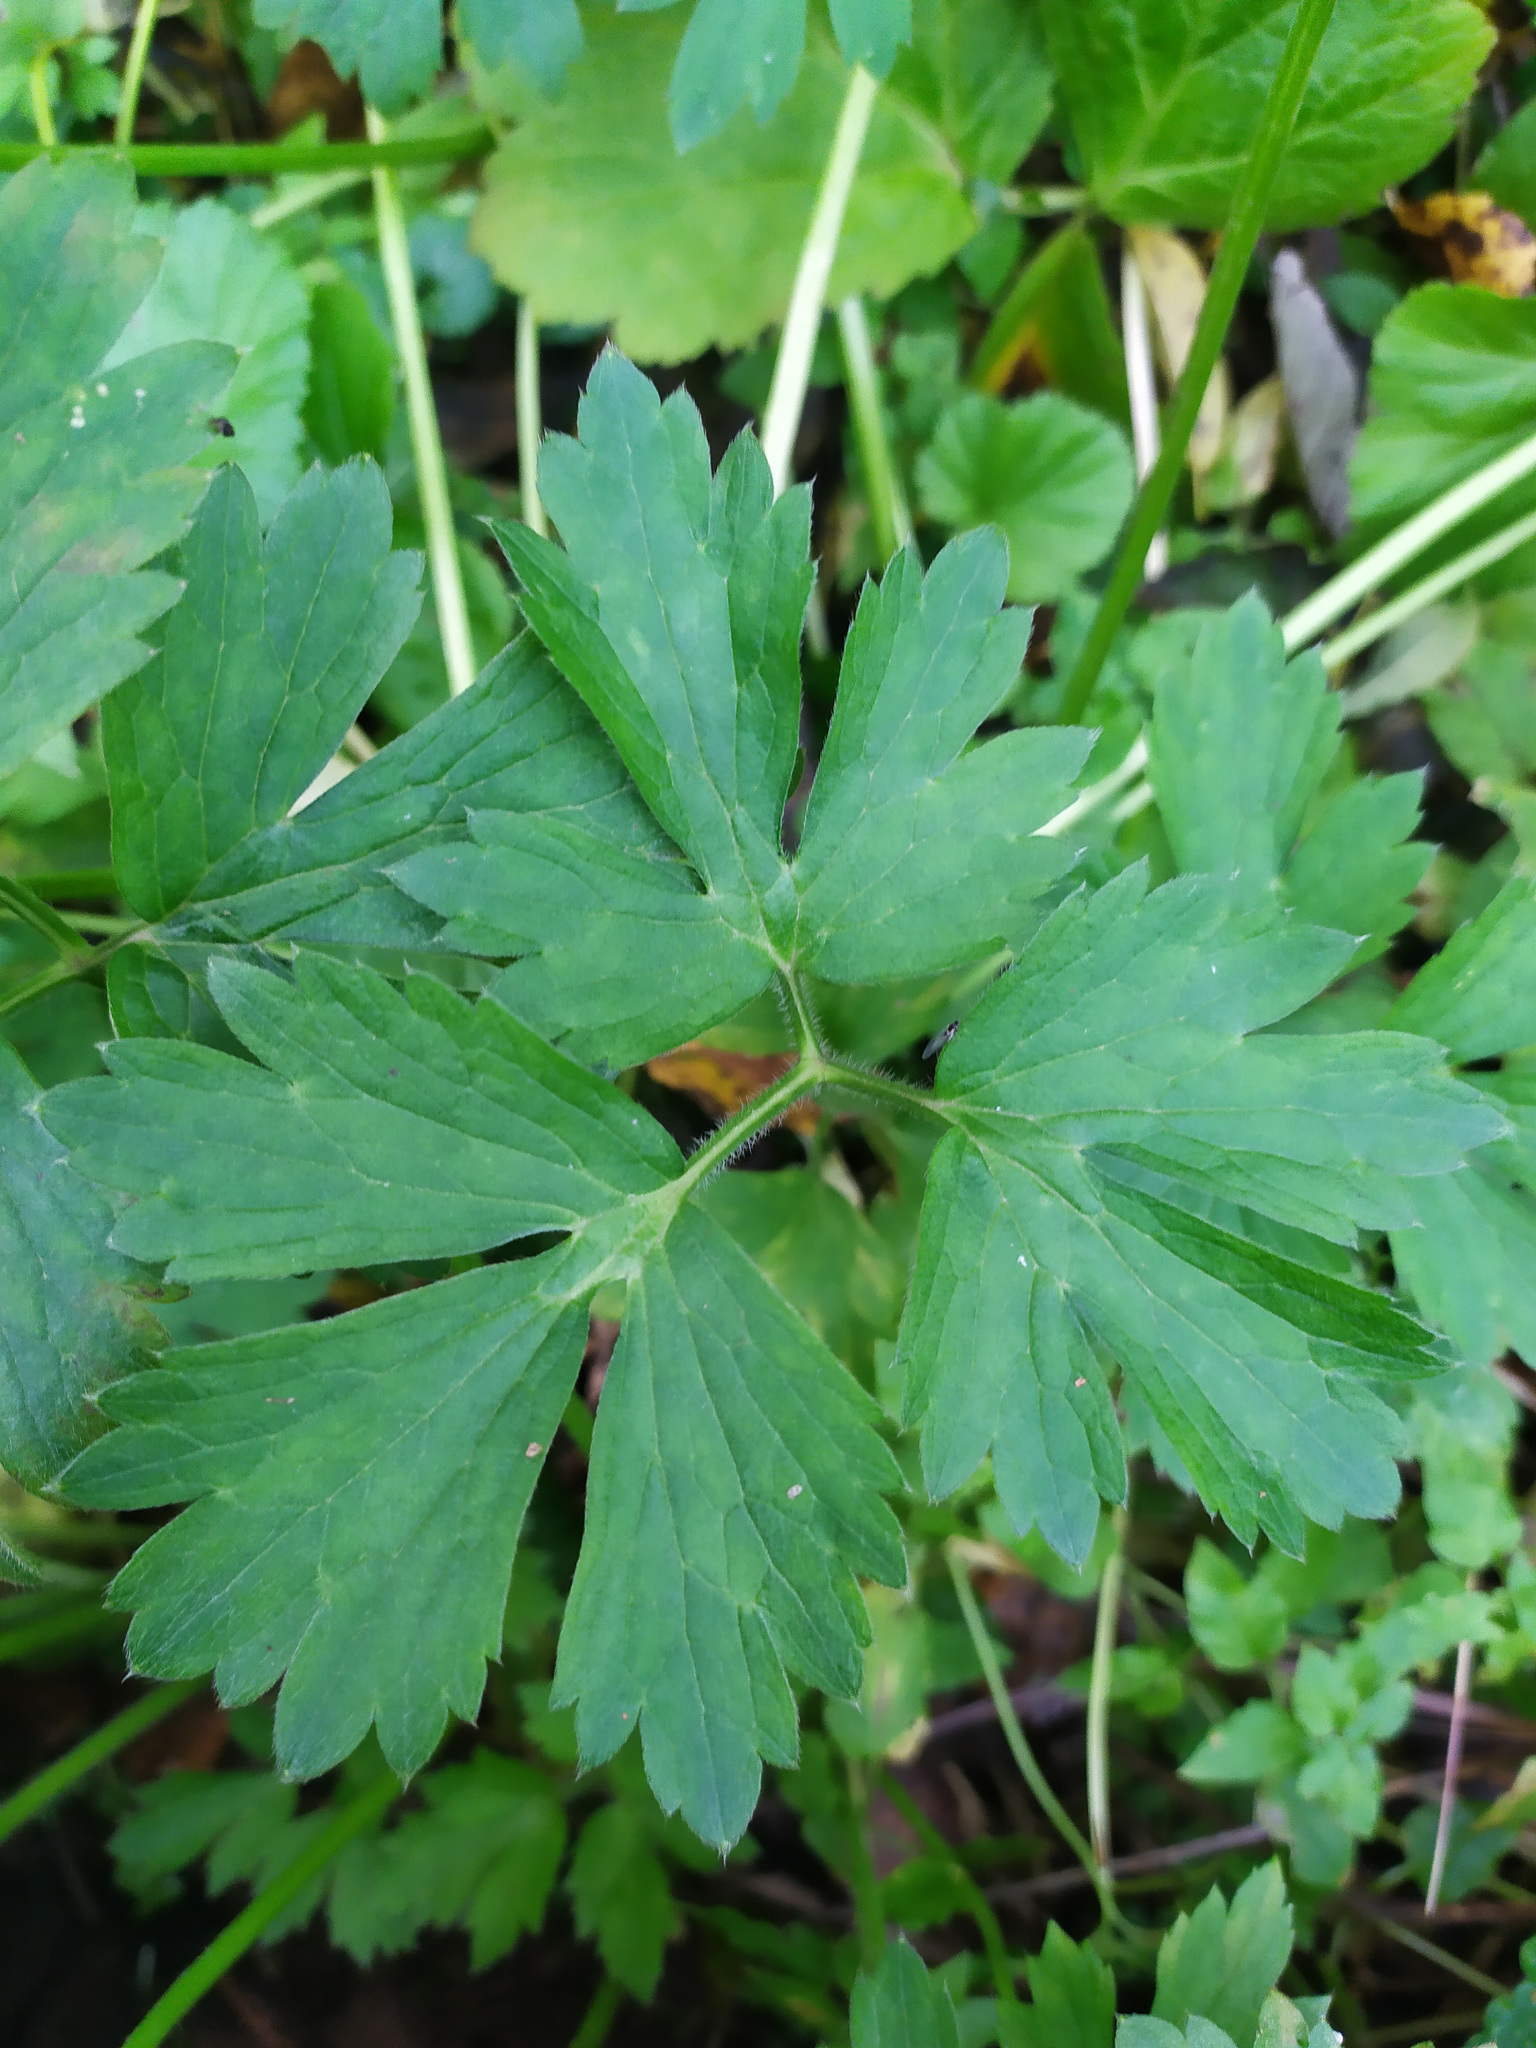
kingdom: Plantae
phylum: Tracheophyta
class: Magnoliopsida
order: Ranunculales
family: Ranunculaceae
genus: Ranunculus
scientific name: Ranunculus repens
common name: Creeping buttercup
